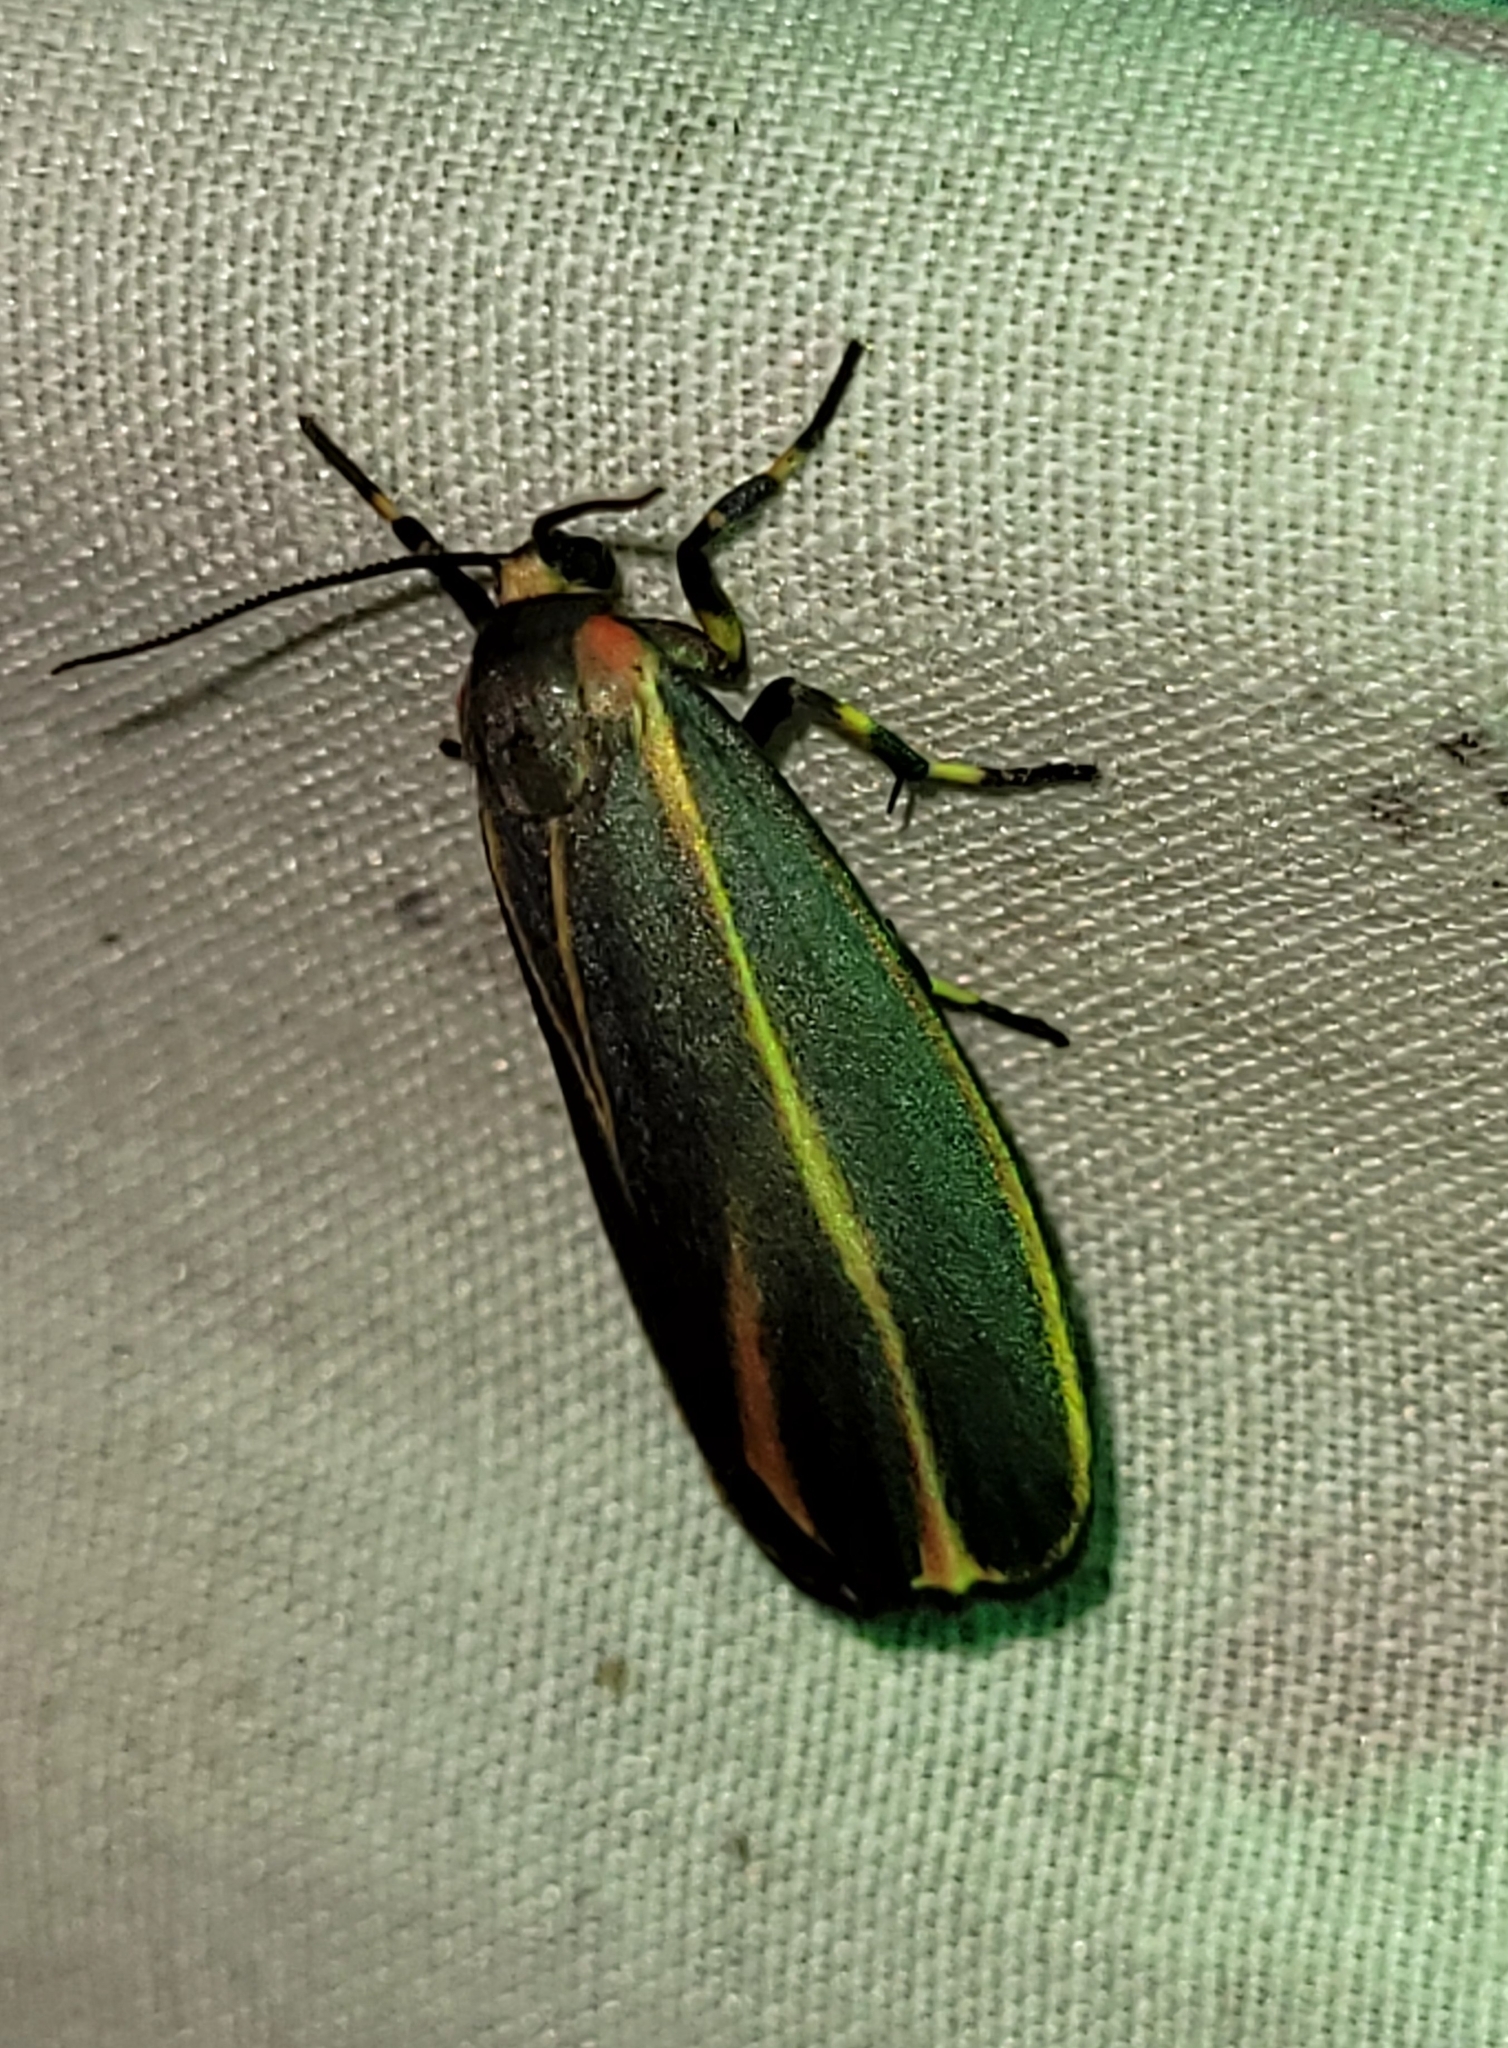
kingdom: Animalia
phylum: Arthropoda
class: Insecta
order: Lepidoptera
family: Erebidae
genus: Hypoprepia
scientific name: Hypoprepia fucosa
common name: Painted lichen moth
